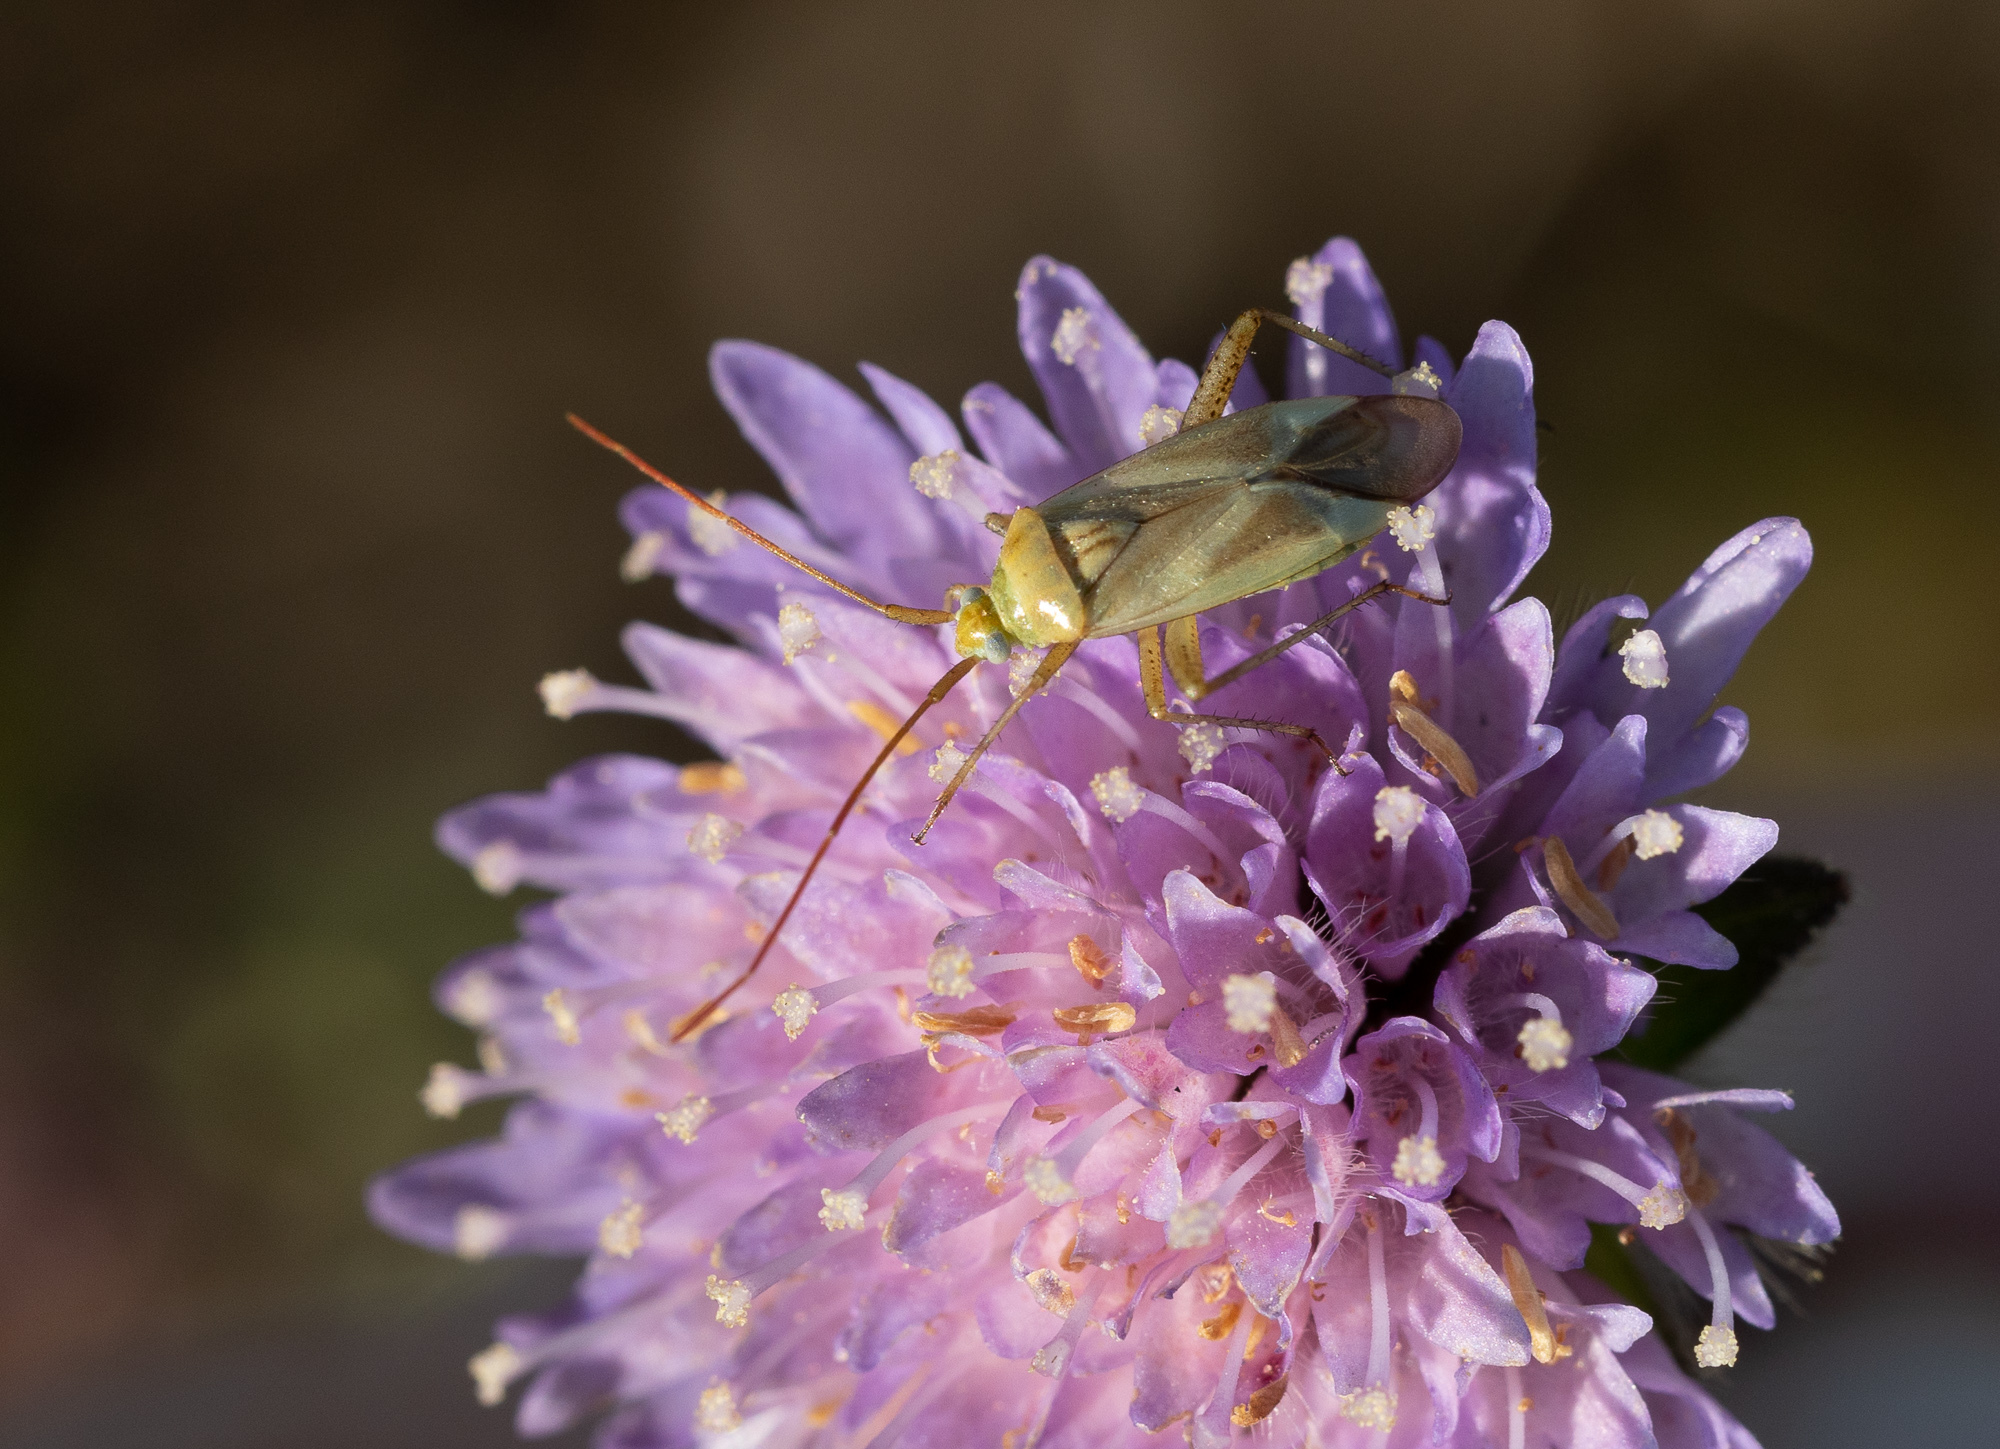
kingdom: Animalia
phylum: Arthropoda
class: Insecta
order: Hemiptera
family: Miridae
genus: Adelphocoris
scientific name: Adelphocoris lineolatus
